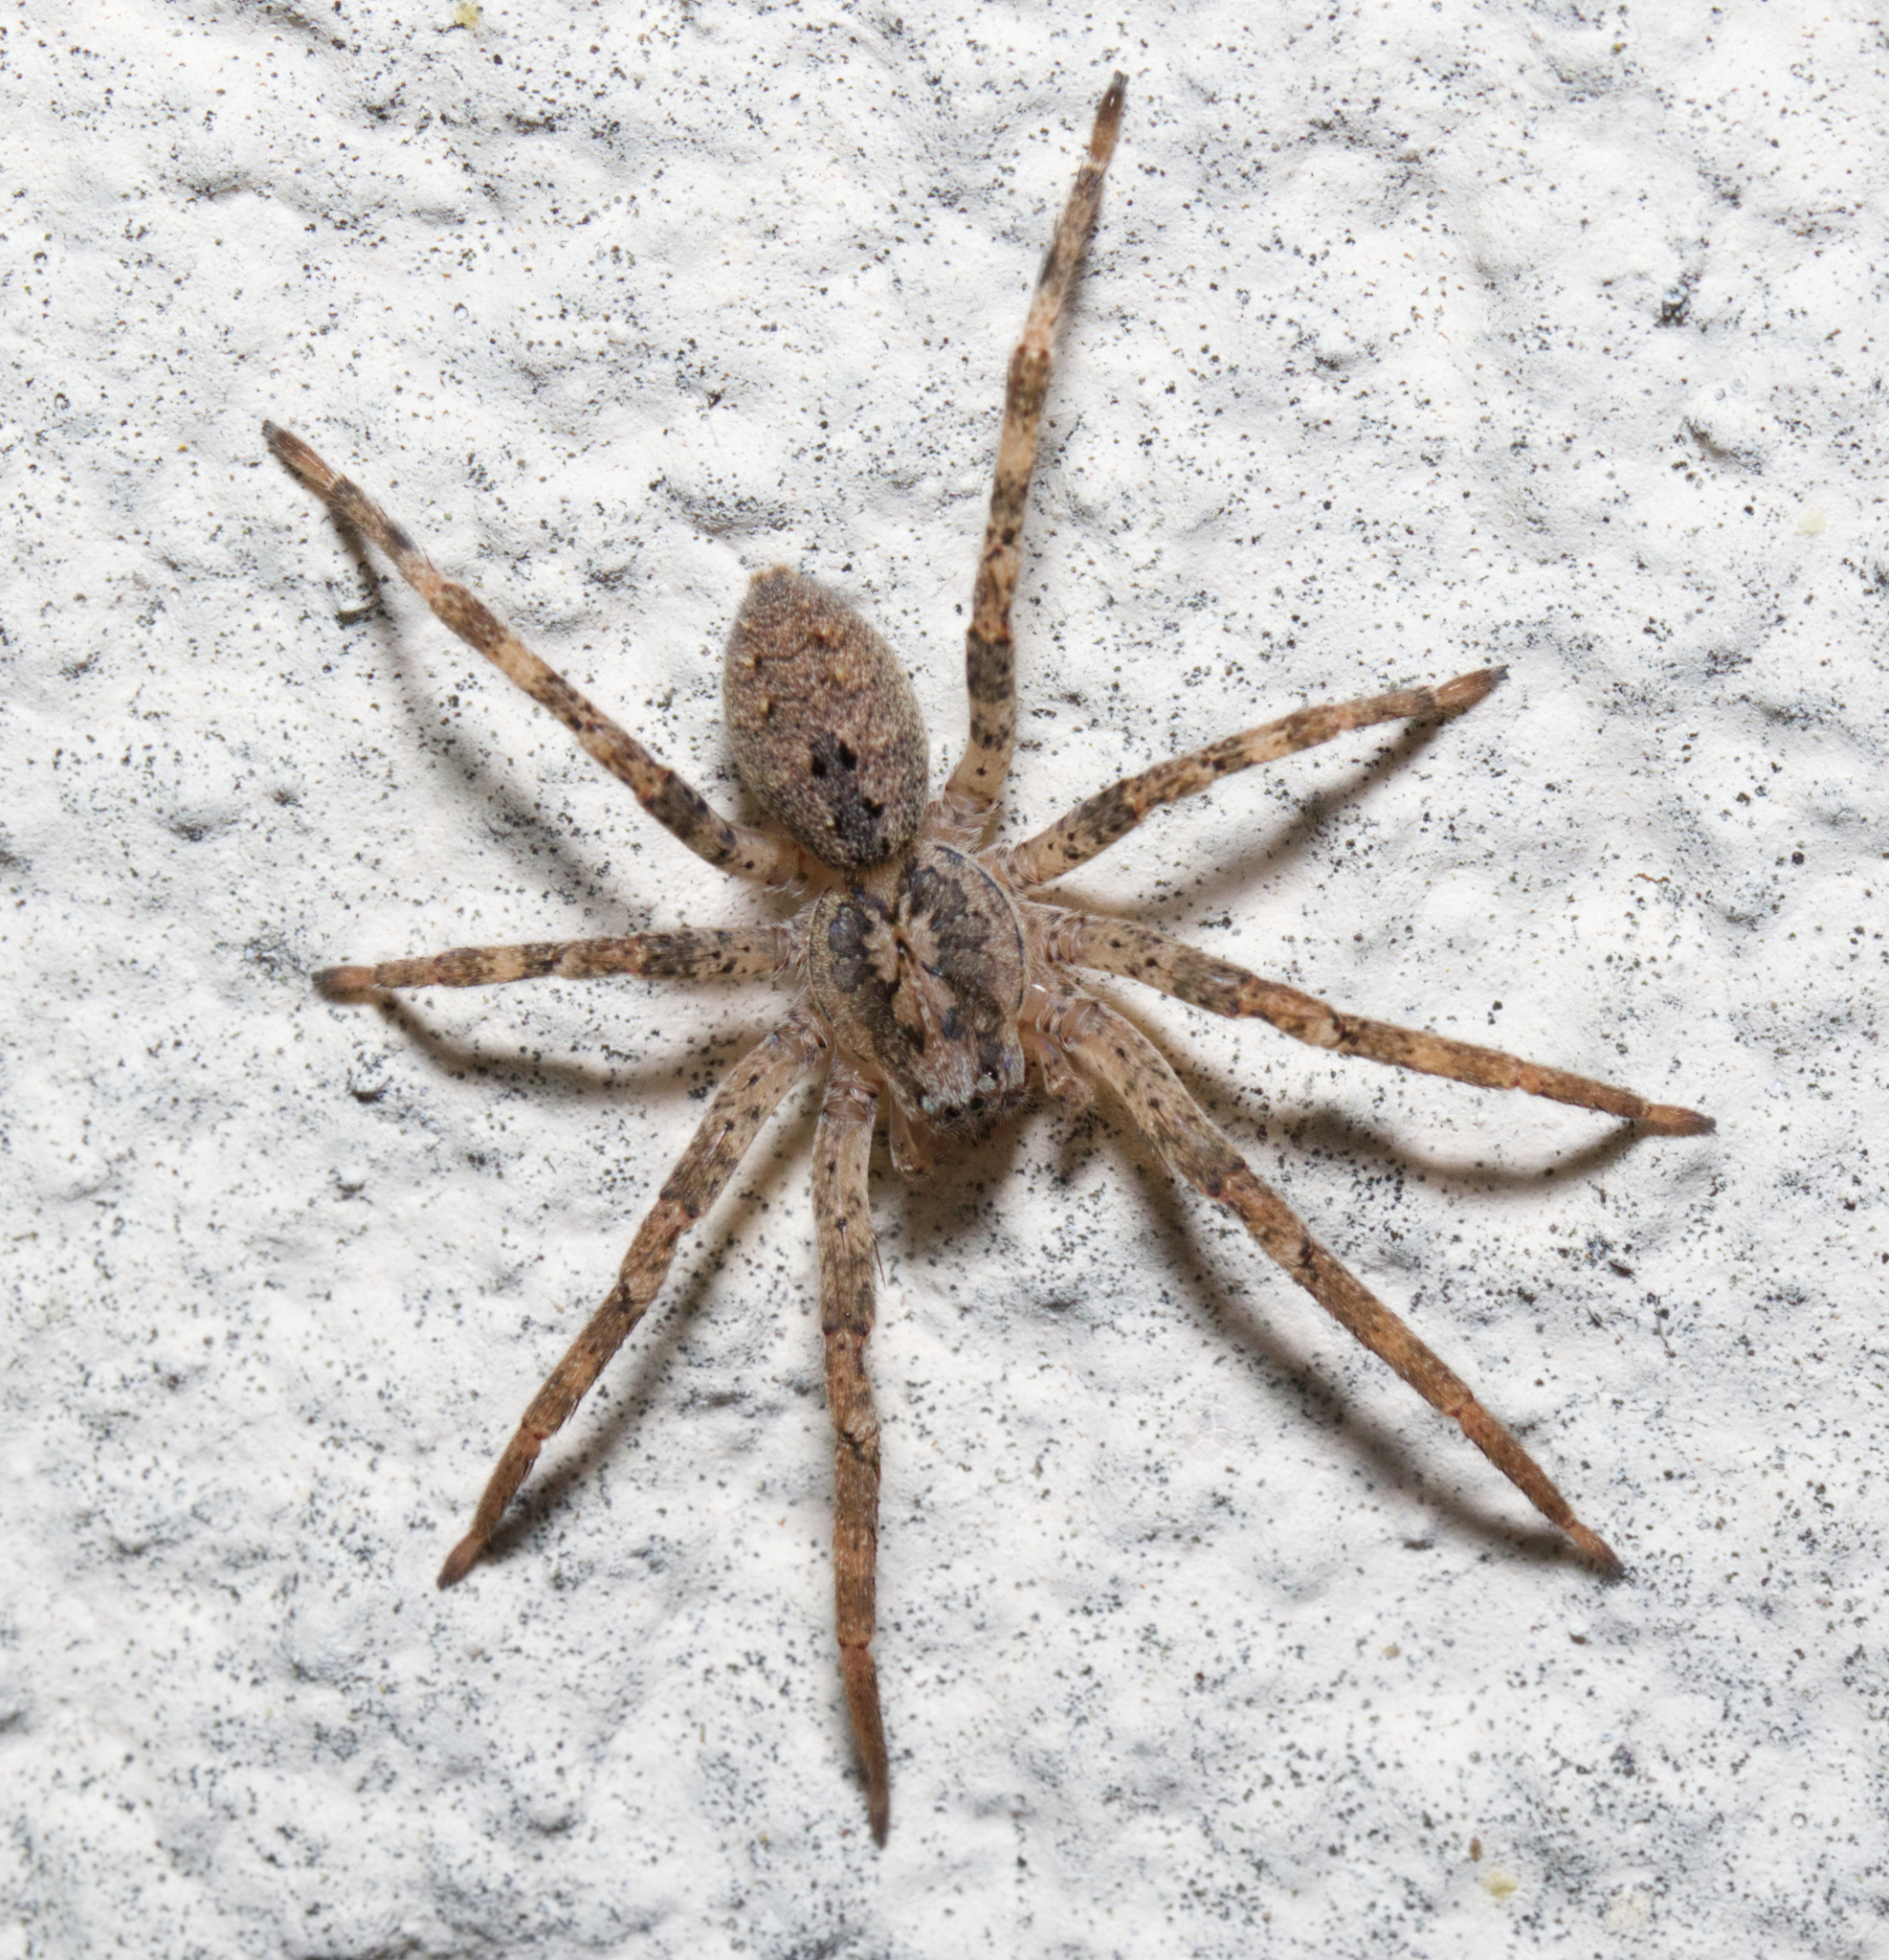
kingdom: Animalia
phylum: Arthropoda
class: Arachnida
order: Araneae
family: Zoropsidae
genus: Zoropsis
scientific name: Zoropsis spinimana
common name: Zoropsid spider
